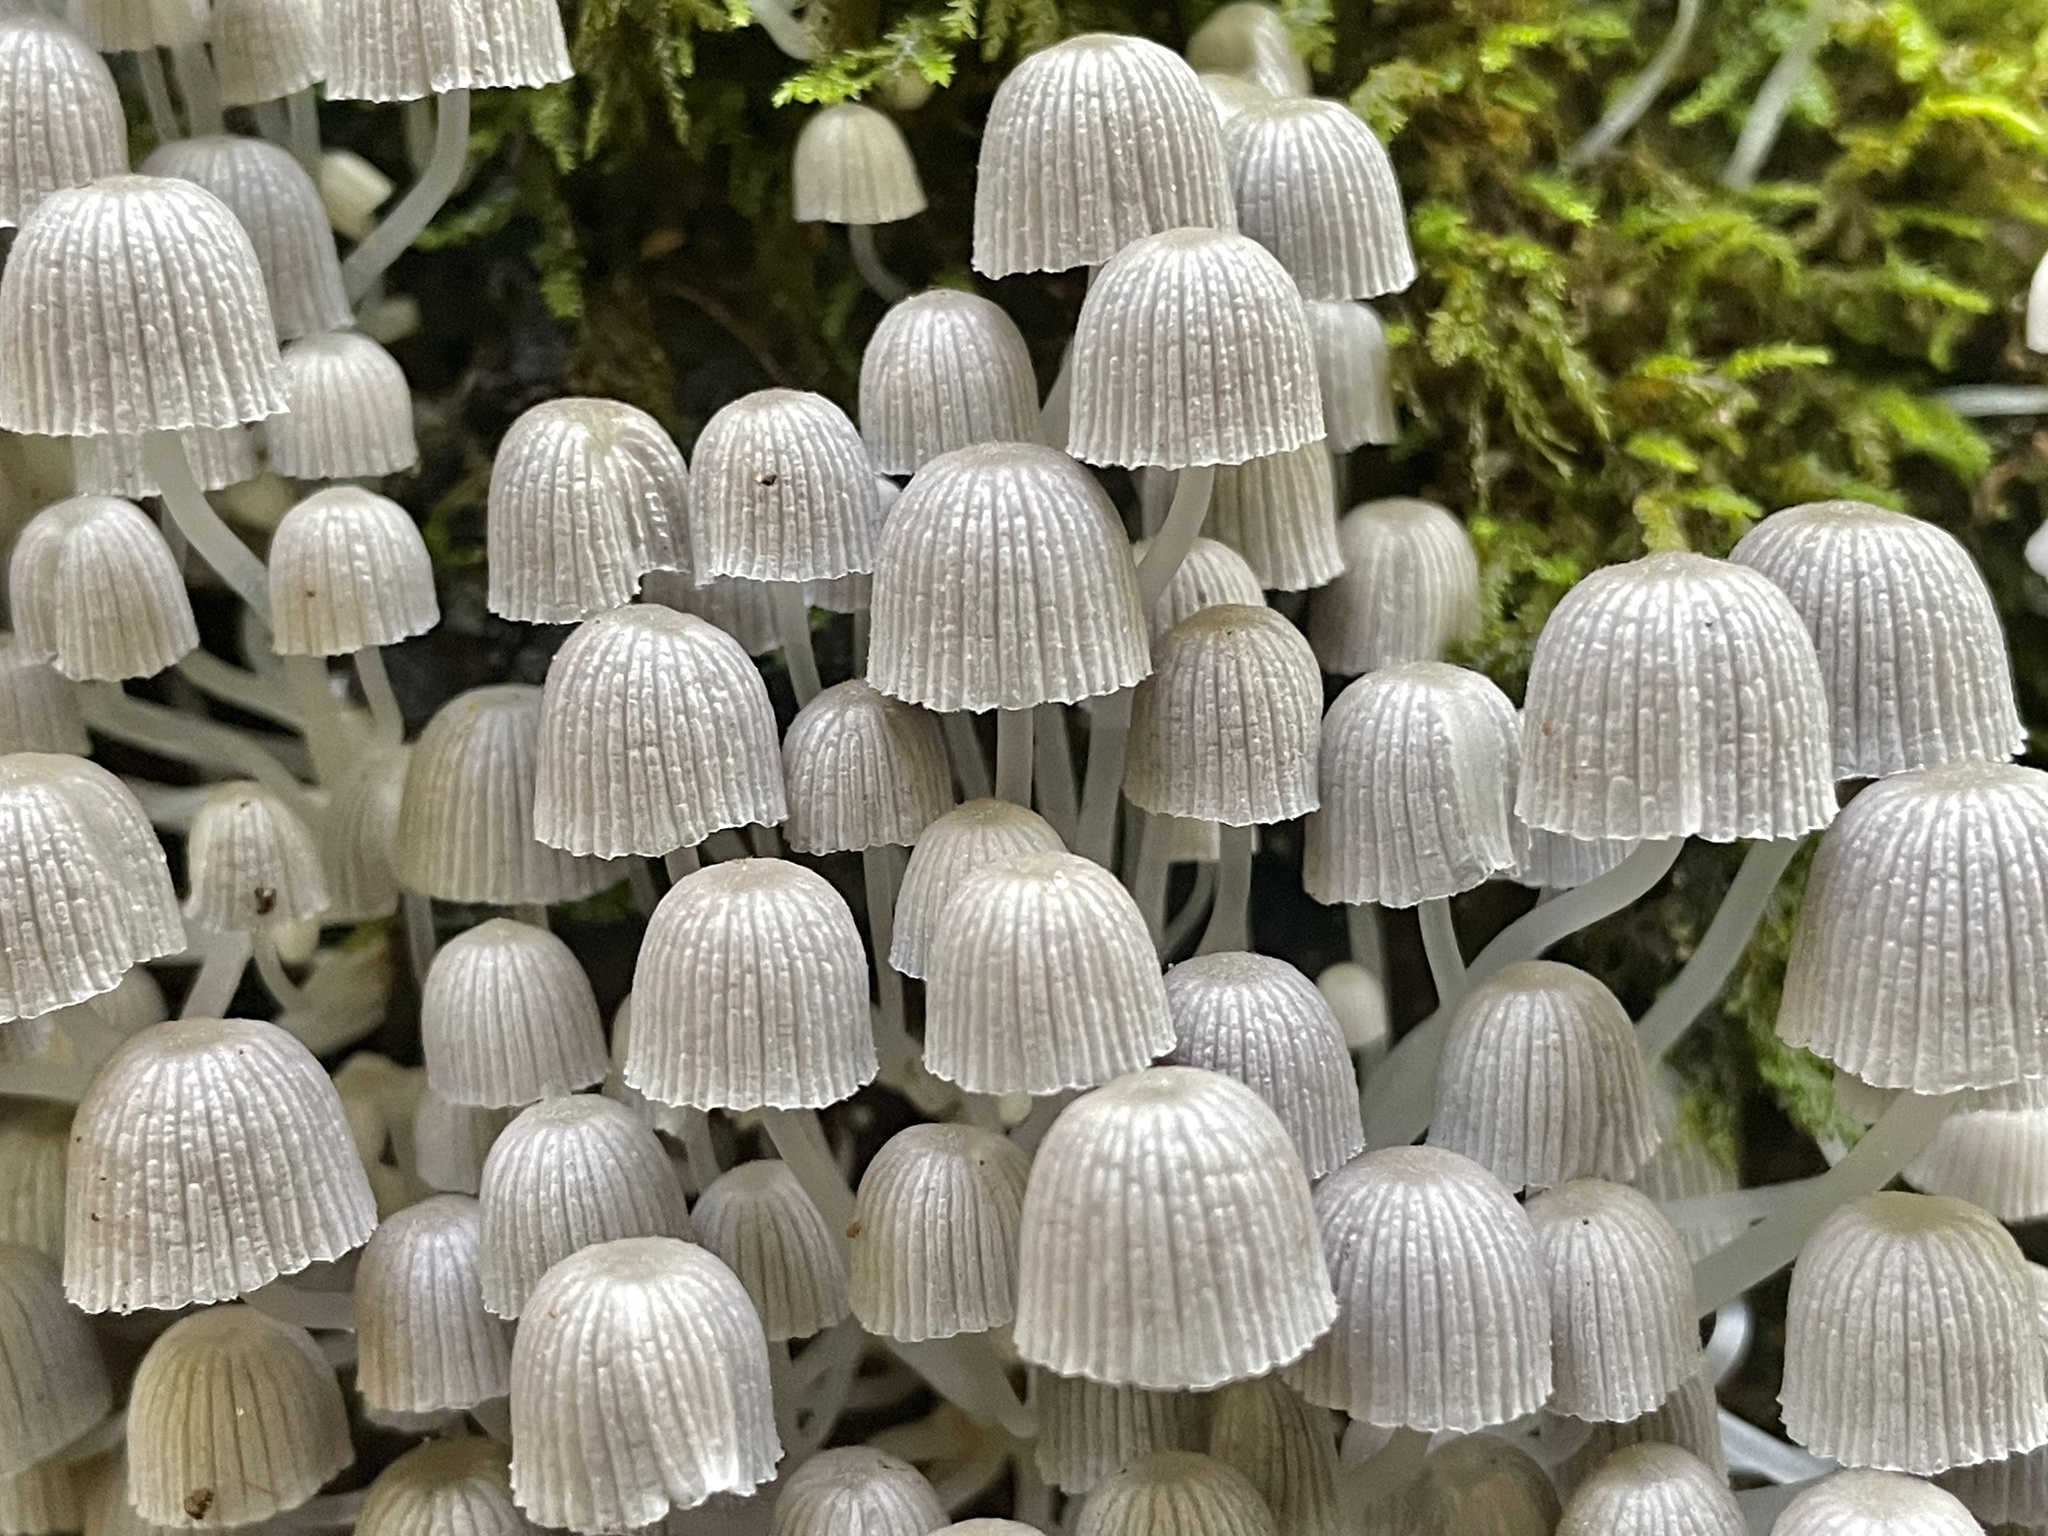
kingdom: Fungi
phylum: Basidiomycota
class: Agaricomycetes
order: Agaricales
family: Psathyrellaceae
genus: Coprinellus
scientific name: Coprinellus disseminatus
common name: Fairies' bonnets
